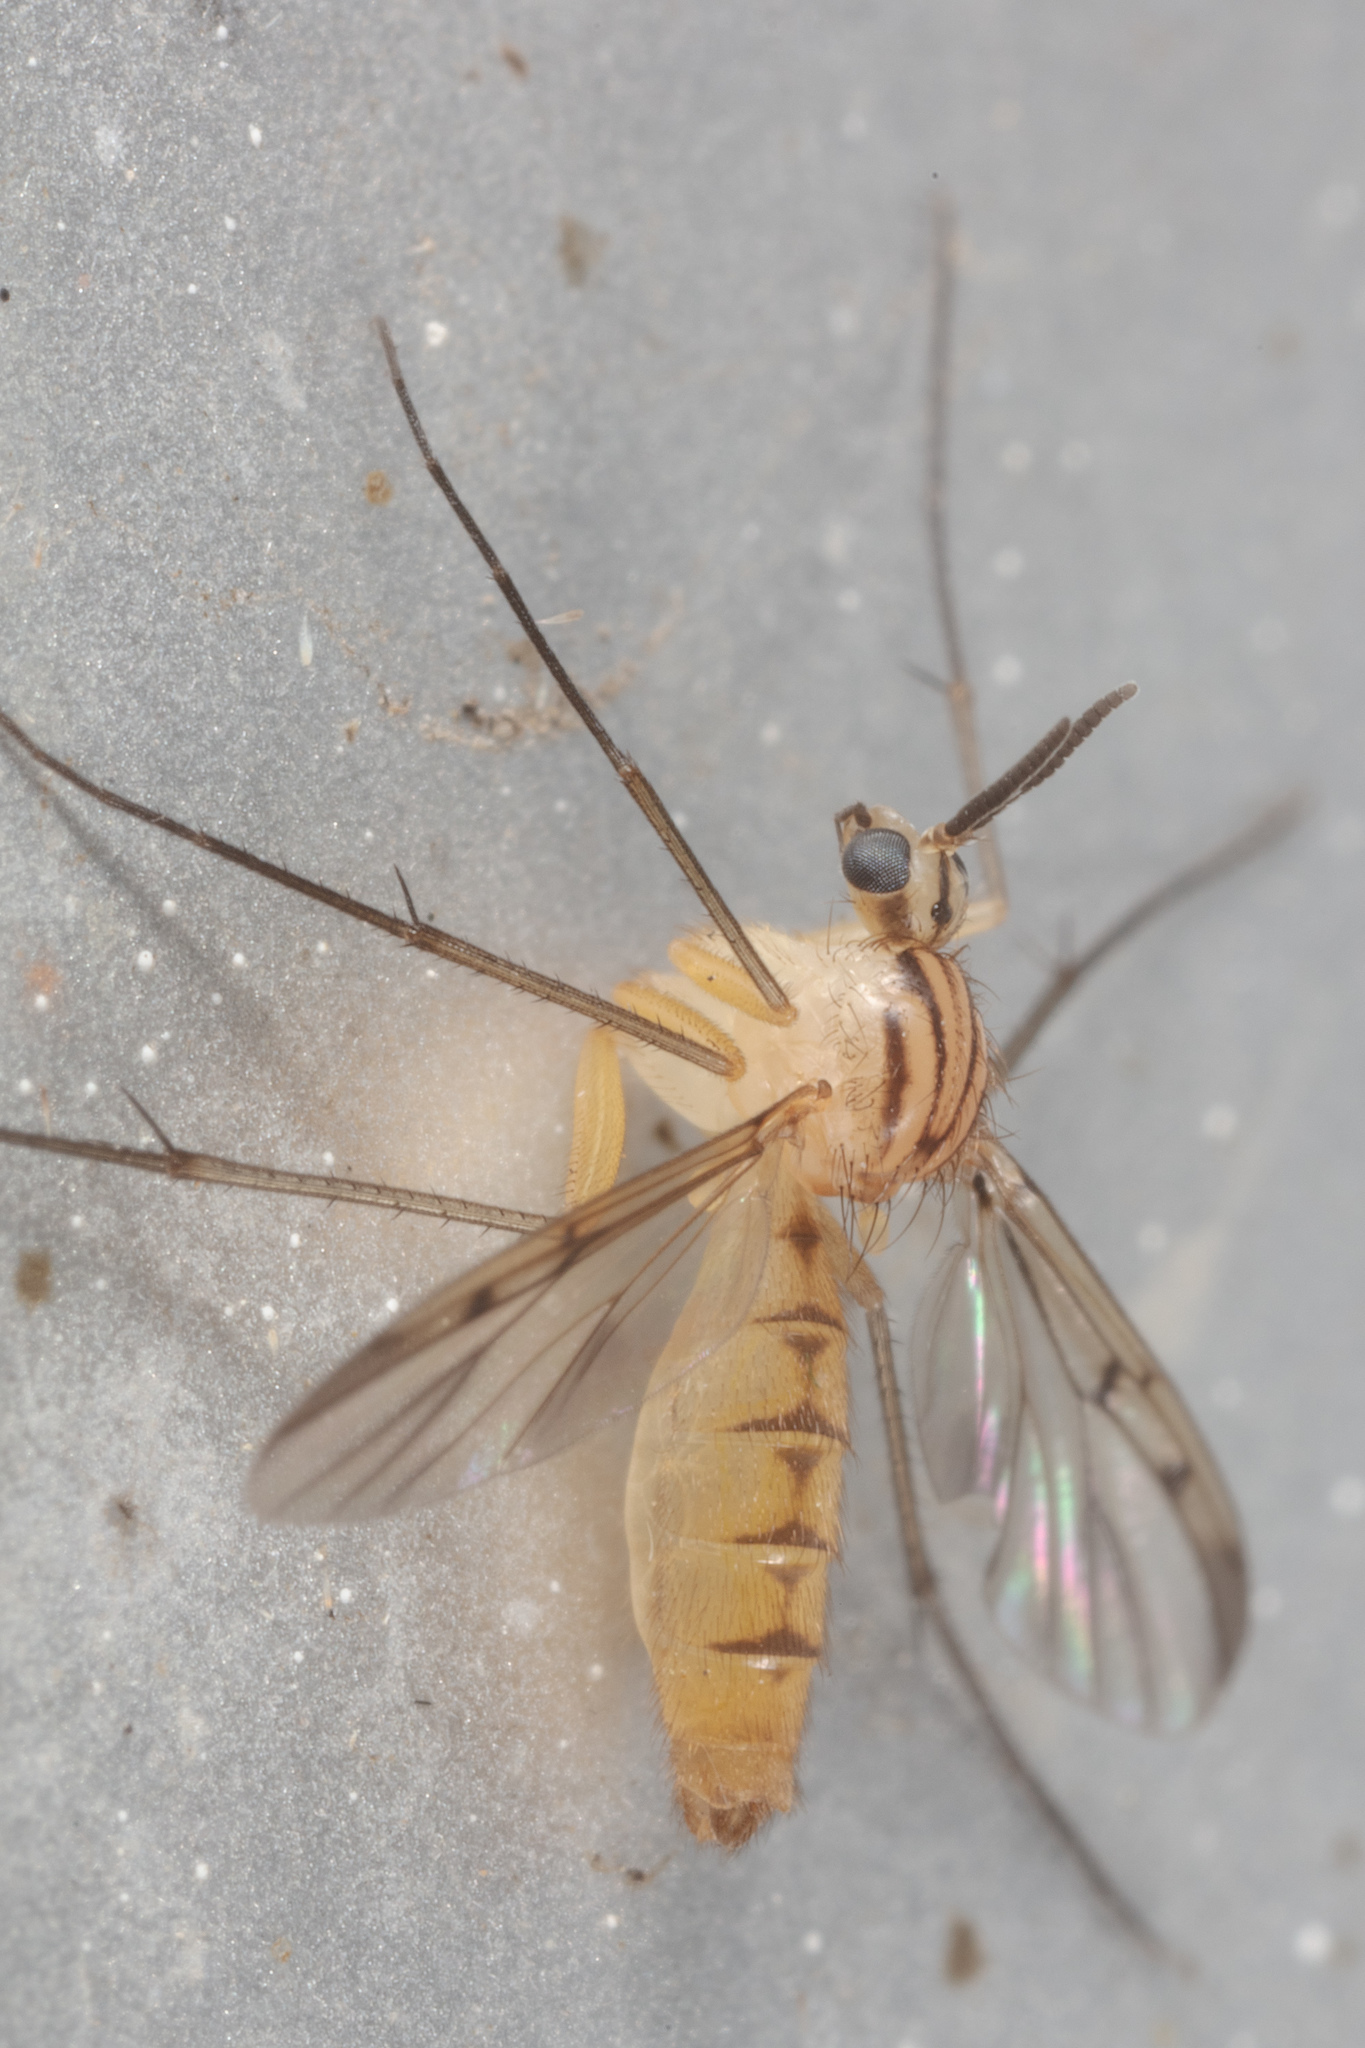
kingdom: Animalia
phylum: Arthropoda
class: Insecta
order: Diptera
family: Mycetophilidae
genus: Neoempheria
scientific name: Neoempheria balioptera
